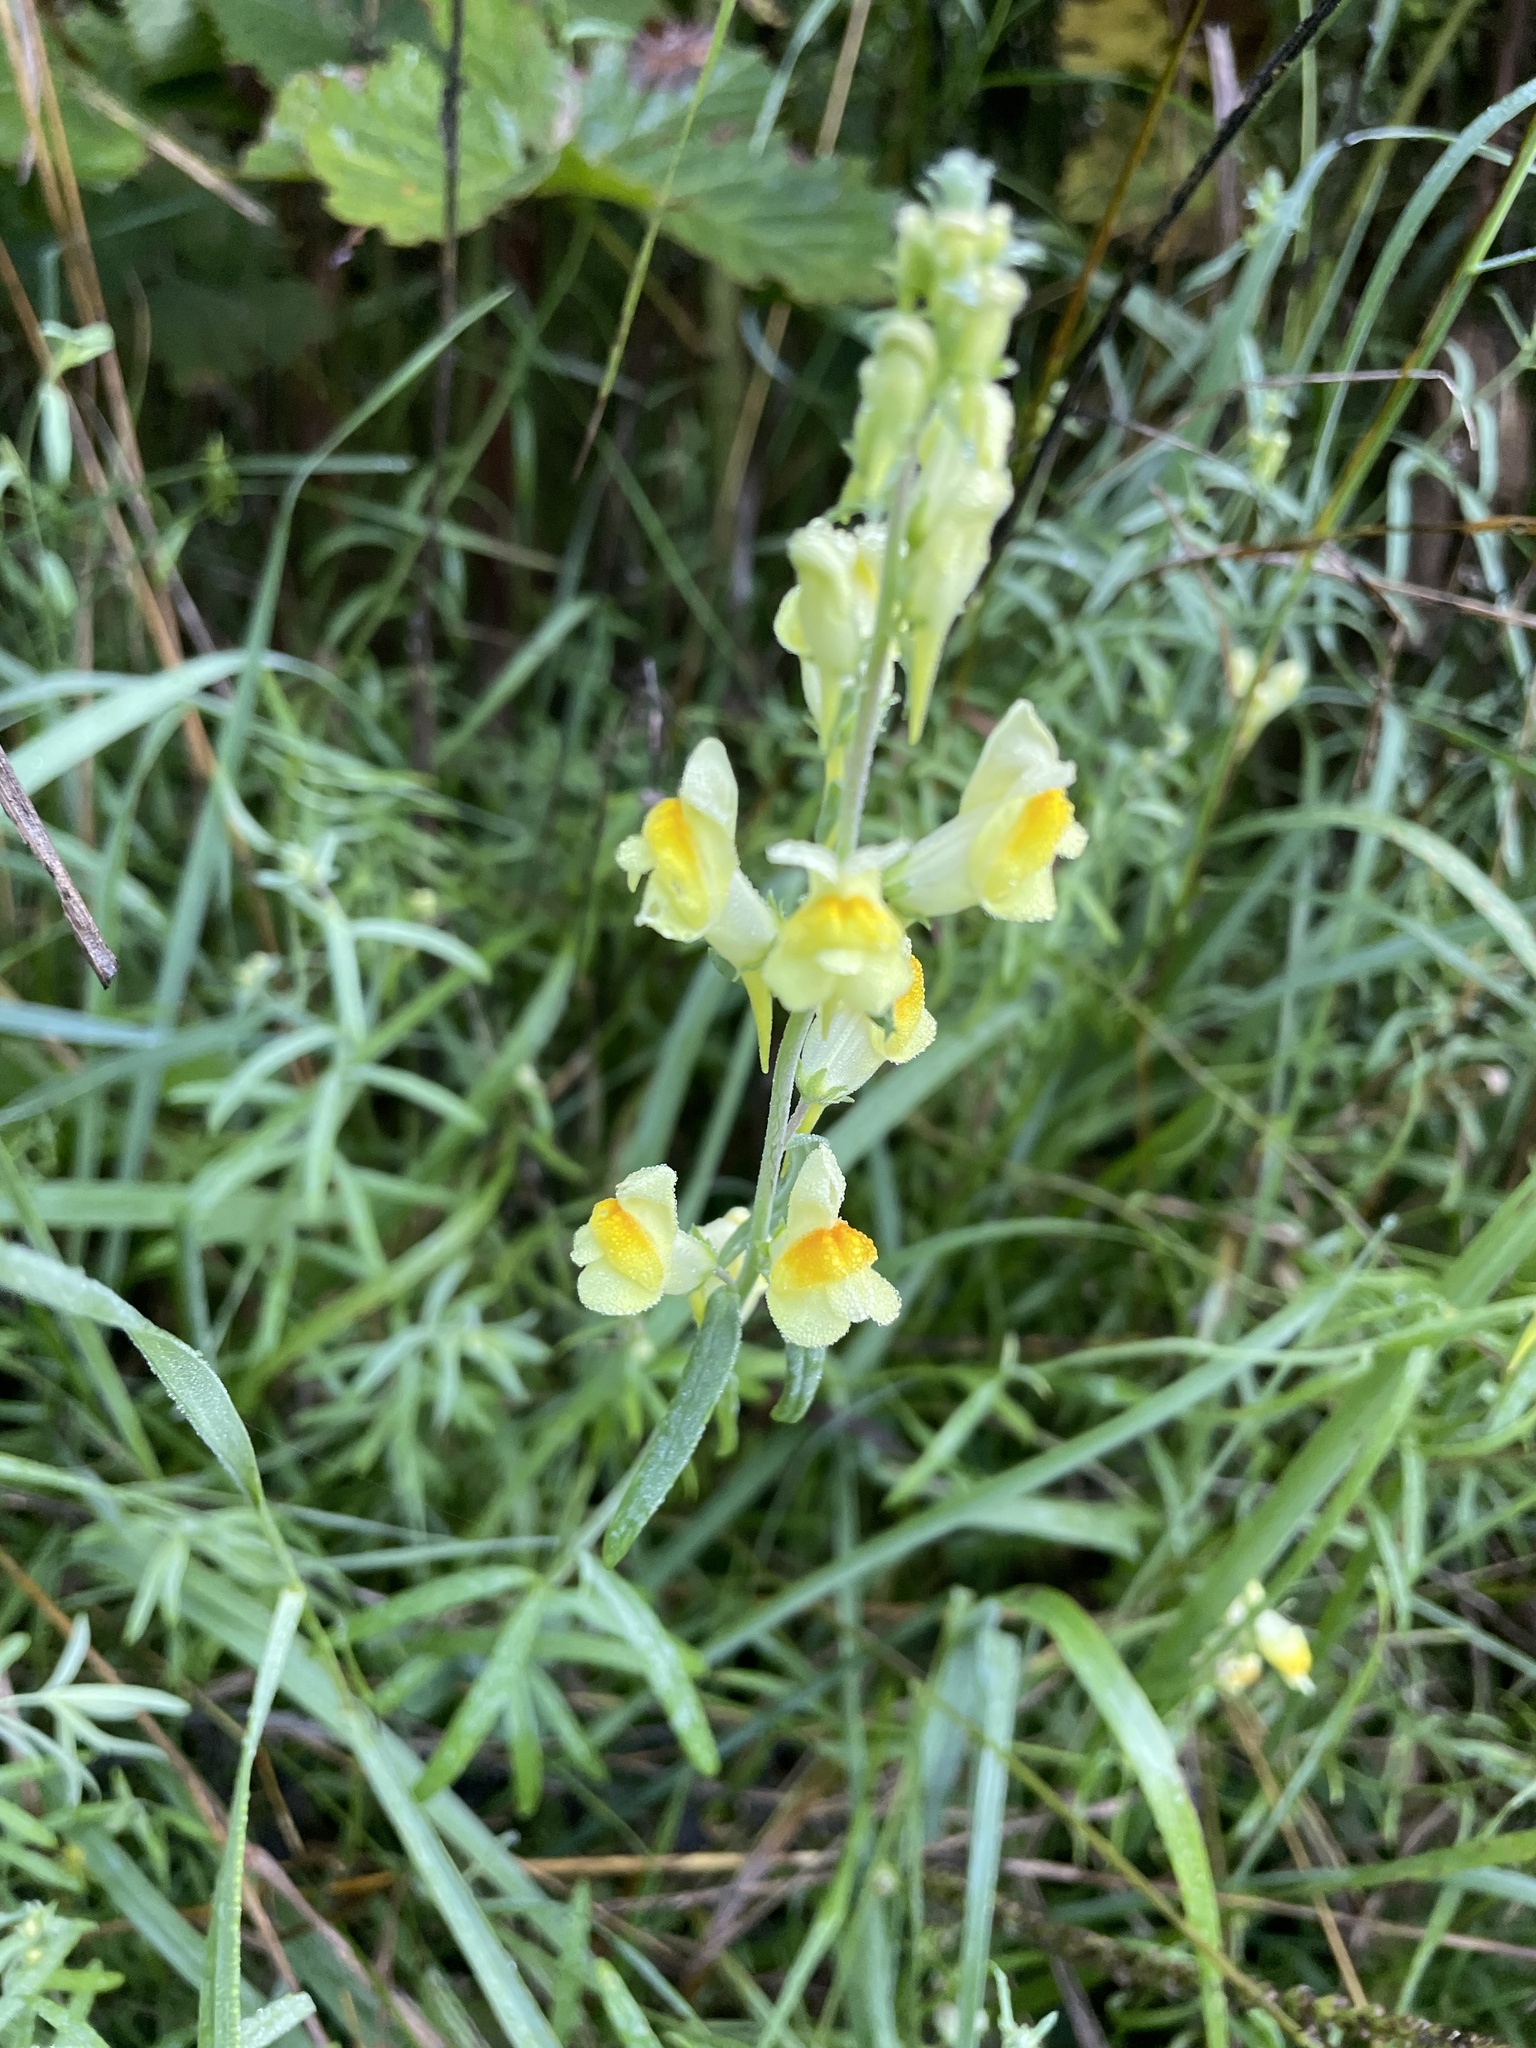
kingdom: Plantae
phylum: Tracheophyta
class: Magnoliopsida
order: Lamiales
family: Plantaginaceae
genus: Linaria
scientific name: Linaria vulgaris
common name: Butter and eggs
